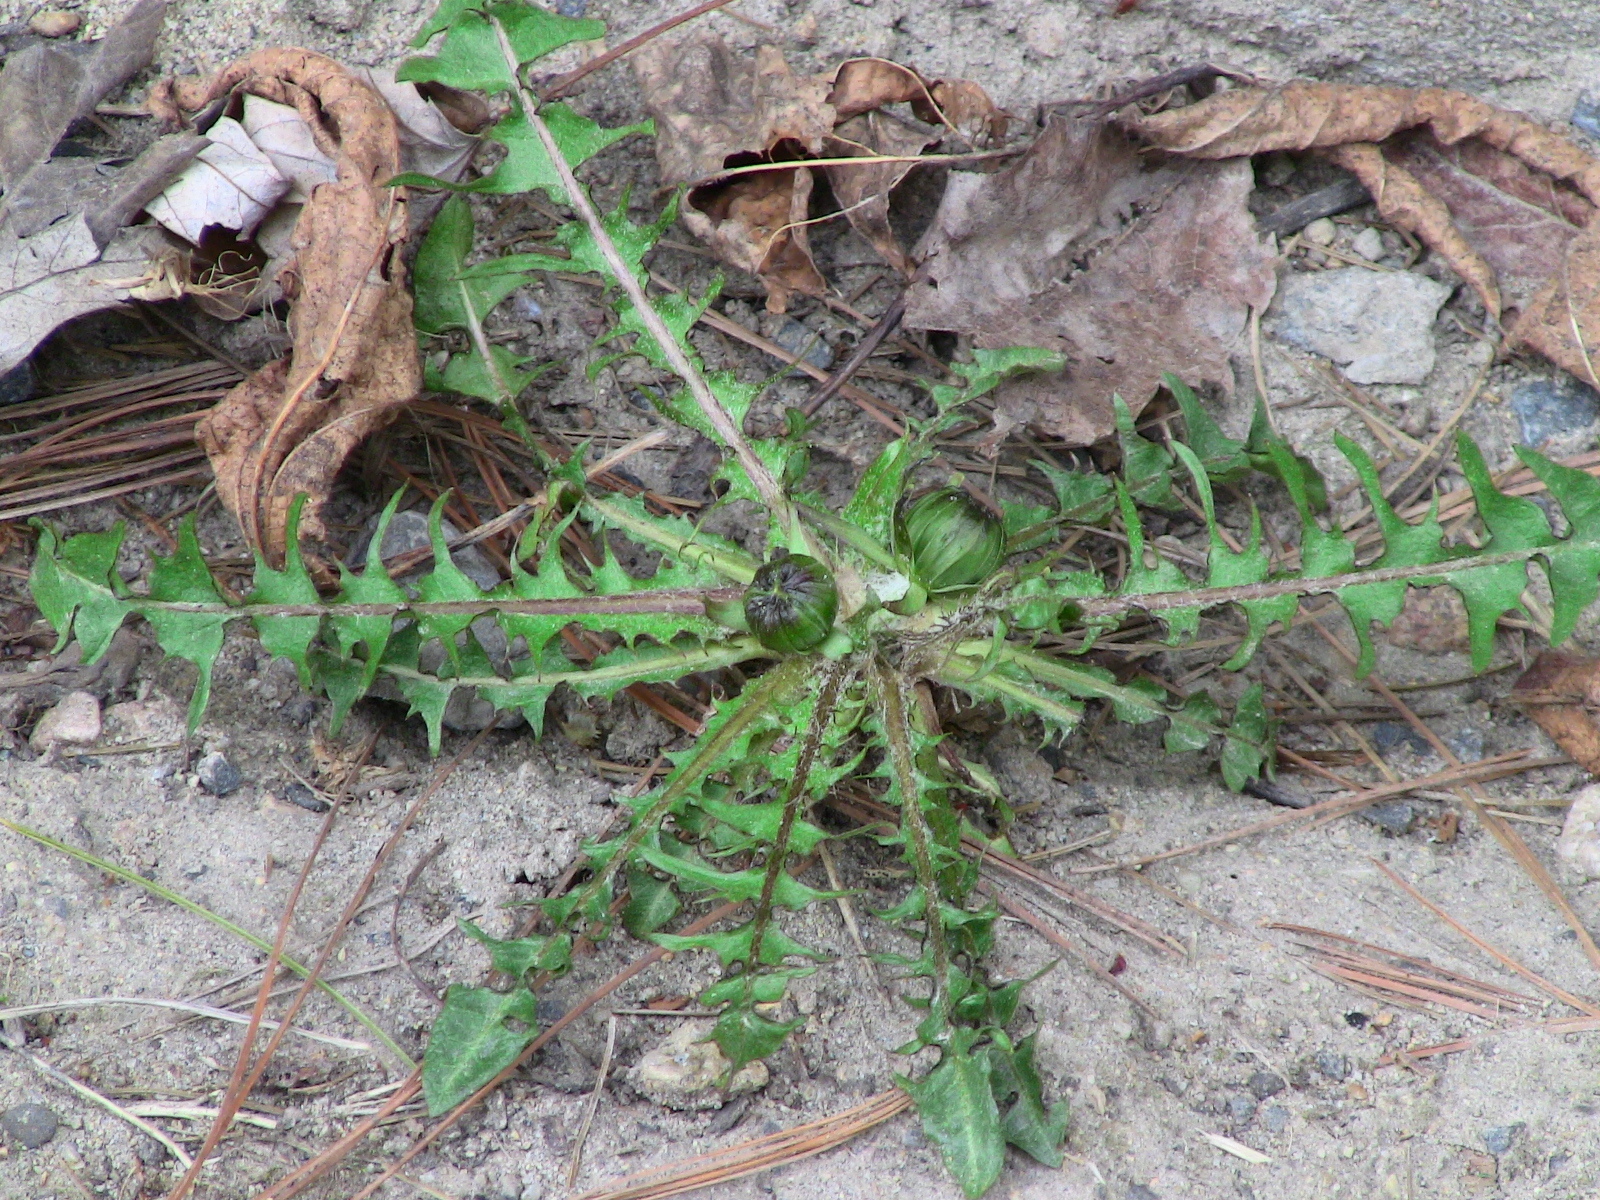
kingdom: Plantae
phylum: Tracheophyta
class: Magnoliopsida
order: Asterales
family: Asteraceae
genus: Taraxacum
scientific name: Taraxacum erythrospermum
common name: Rock dandelion
